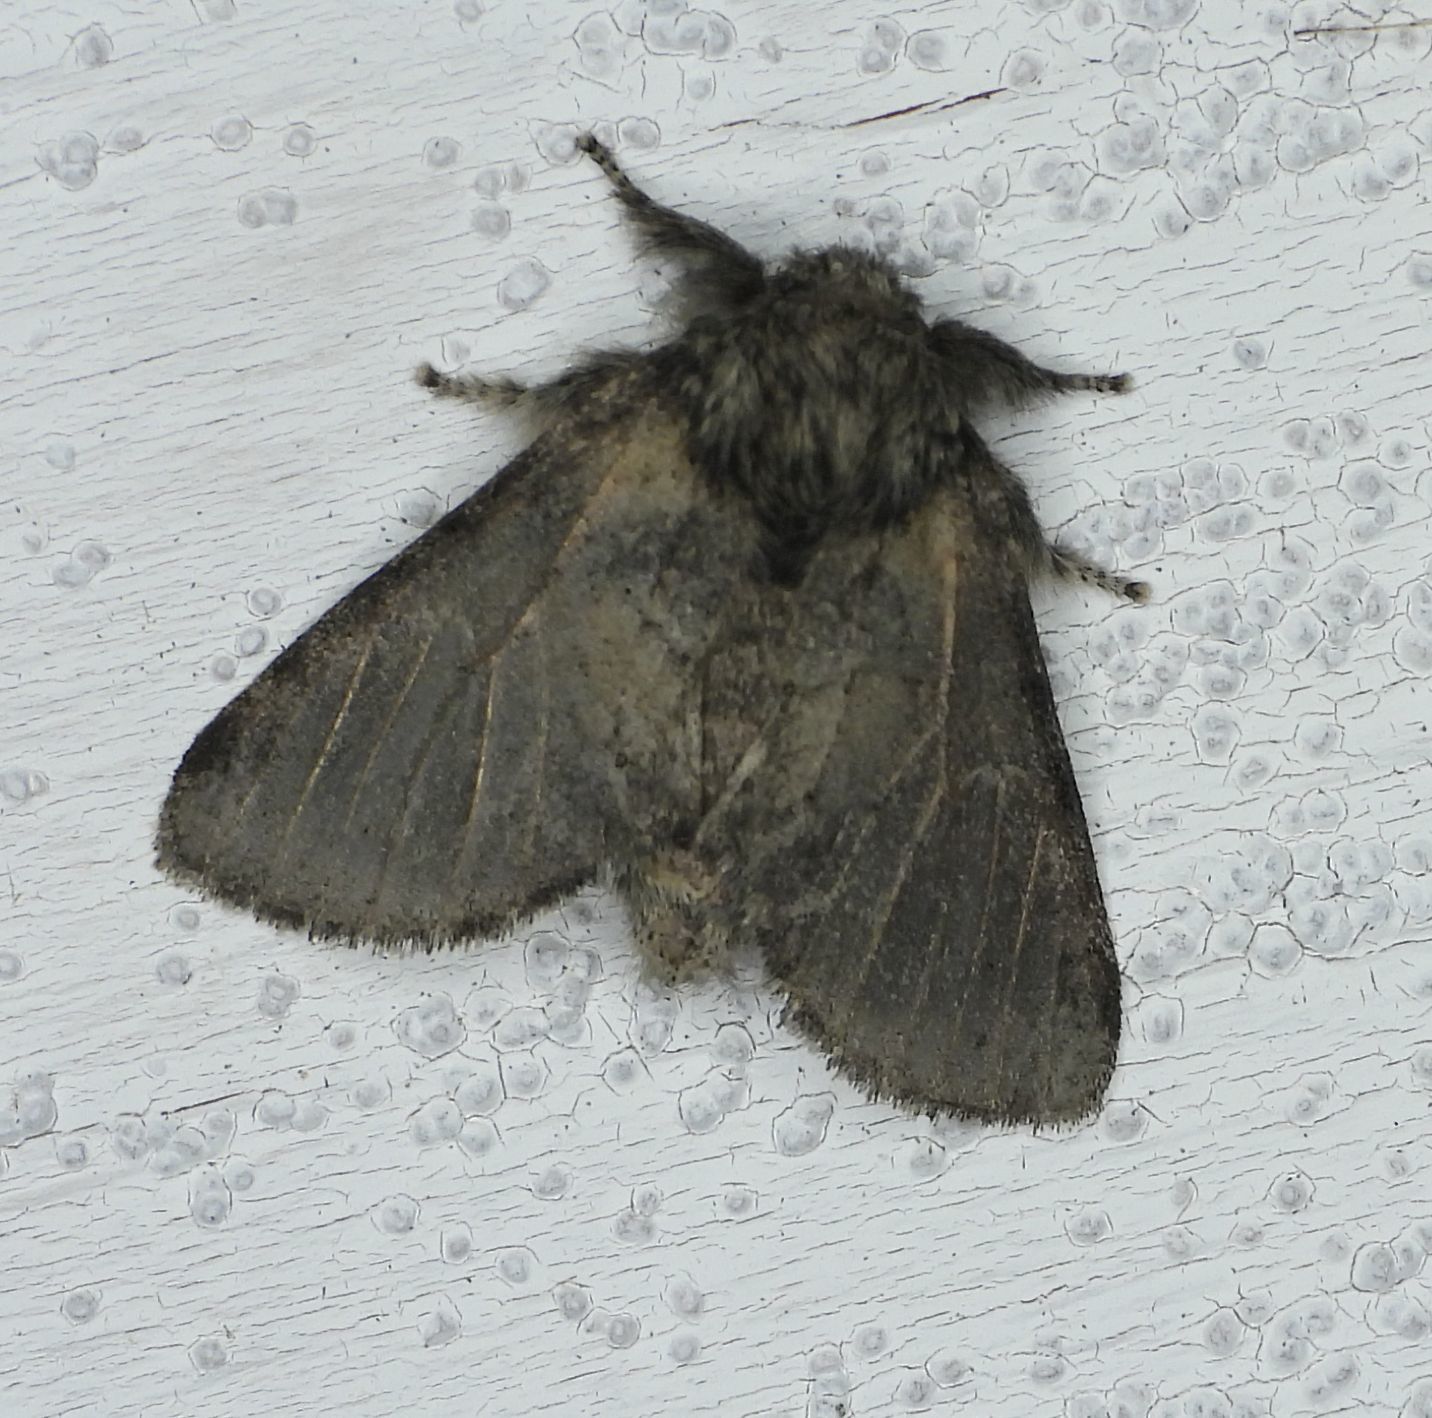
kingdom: Animalia
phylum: Arthropoda
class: Insecta
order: Lepidoptera
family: Notodontidae
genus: Gluphisia
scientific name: Gluphisia septentrionis
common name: Common gluphisia
